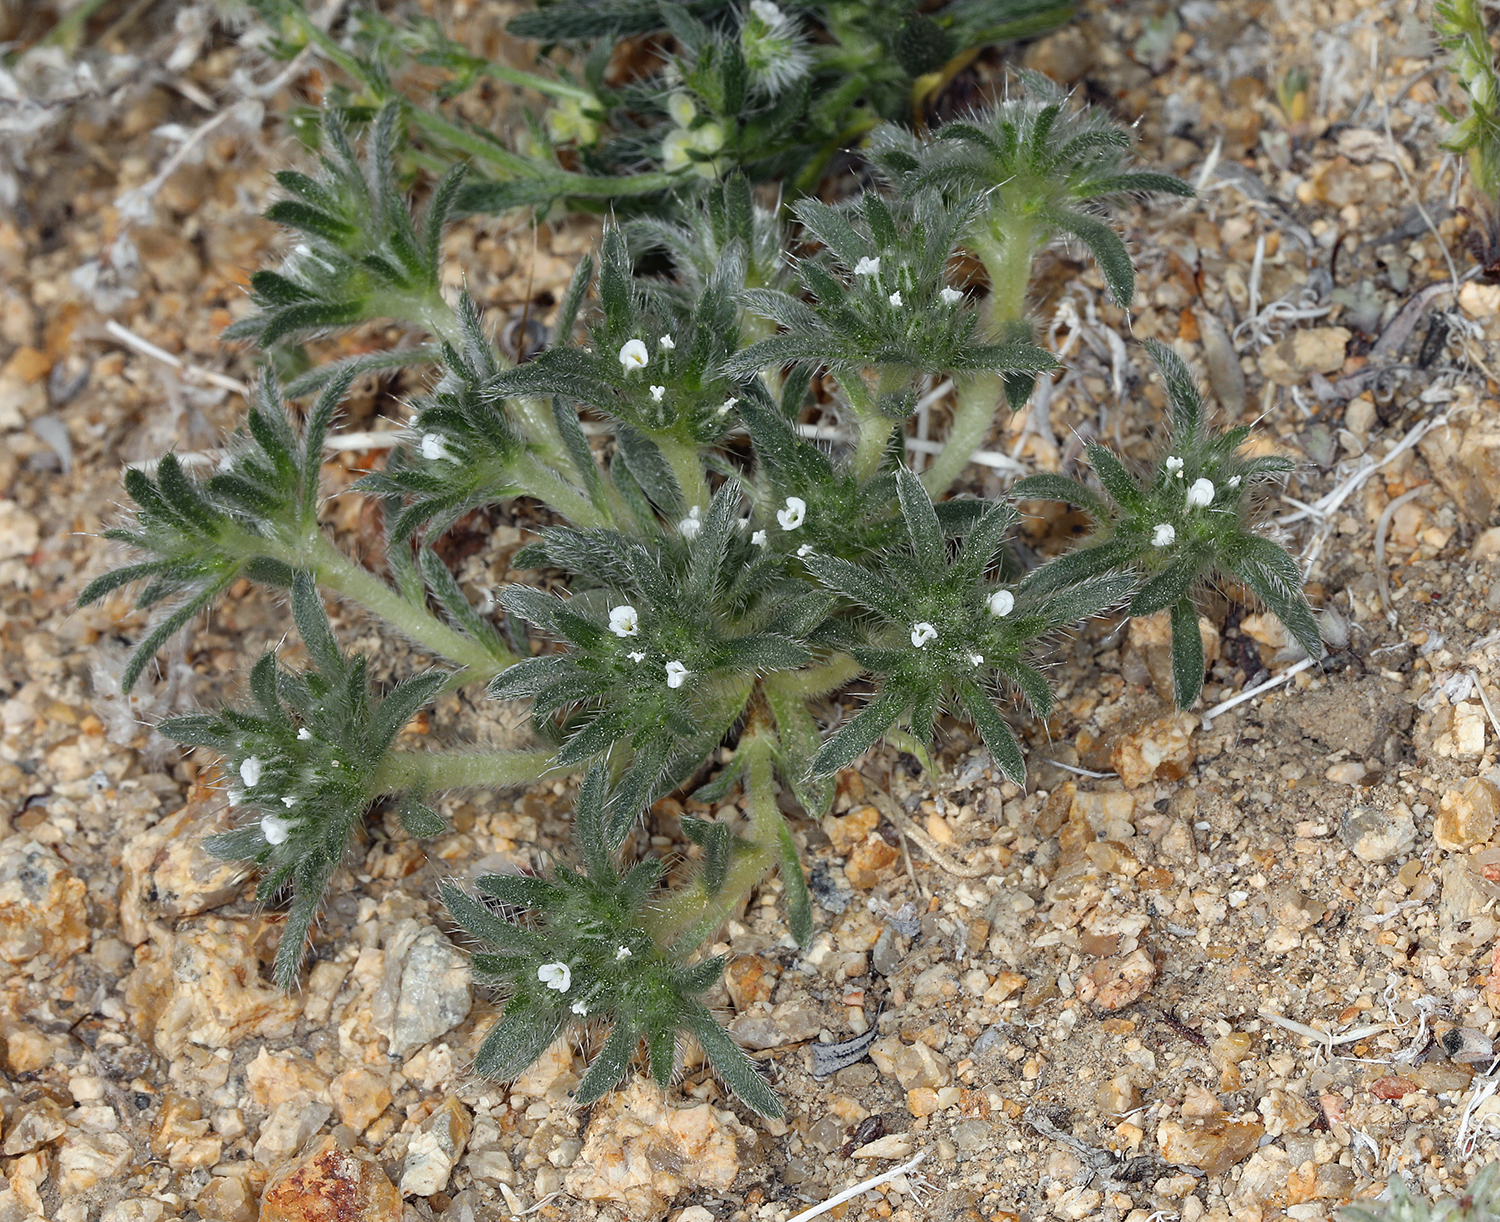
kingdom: Plantae
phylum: Tracheophyta
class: Magnoliopsida
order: Boraginales
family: Boraginaceae
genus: Greeneocharis
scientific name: Greeneocharis circumscissa
